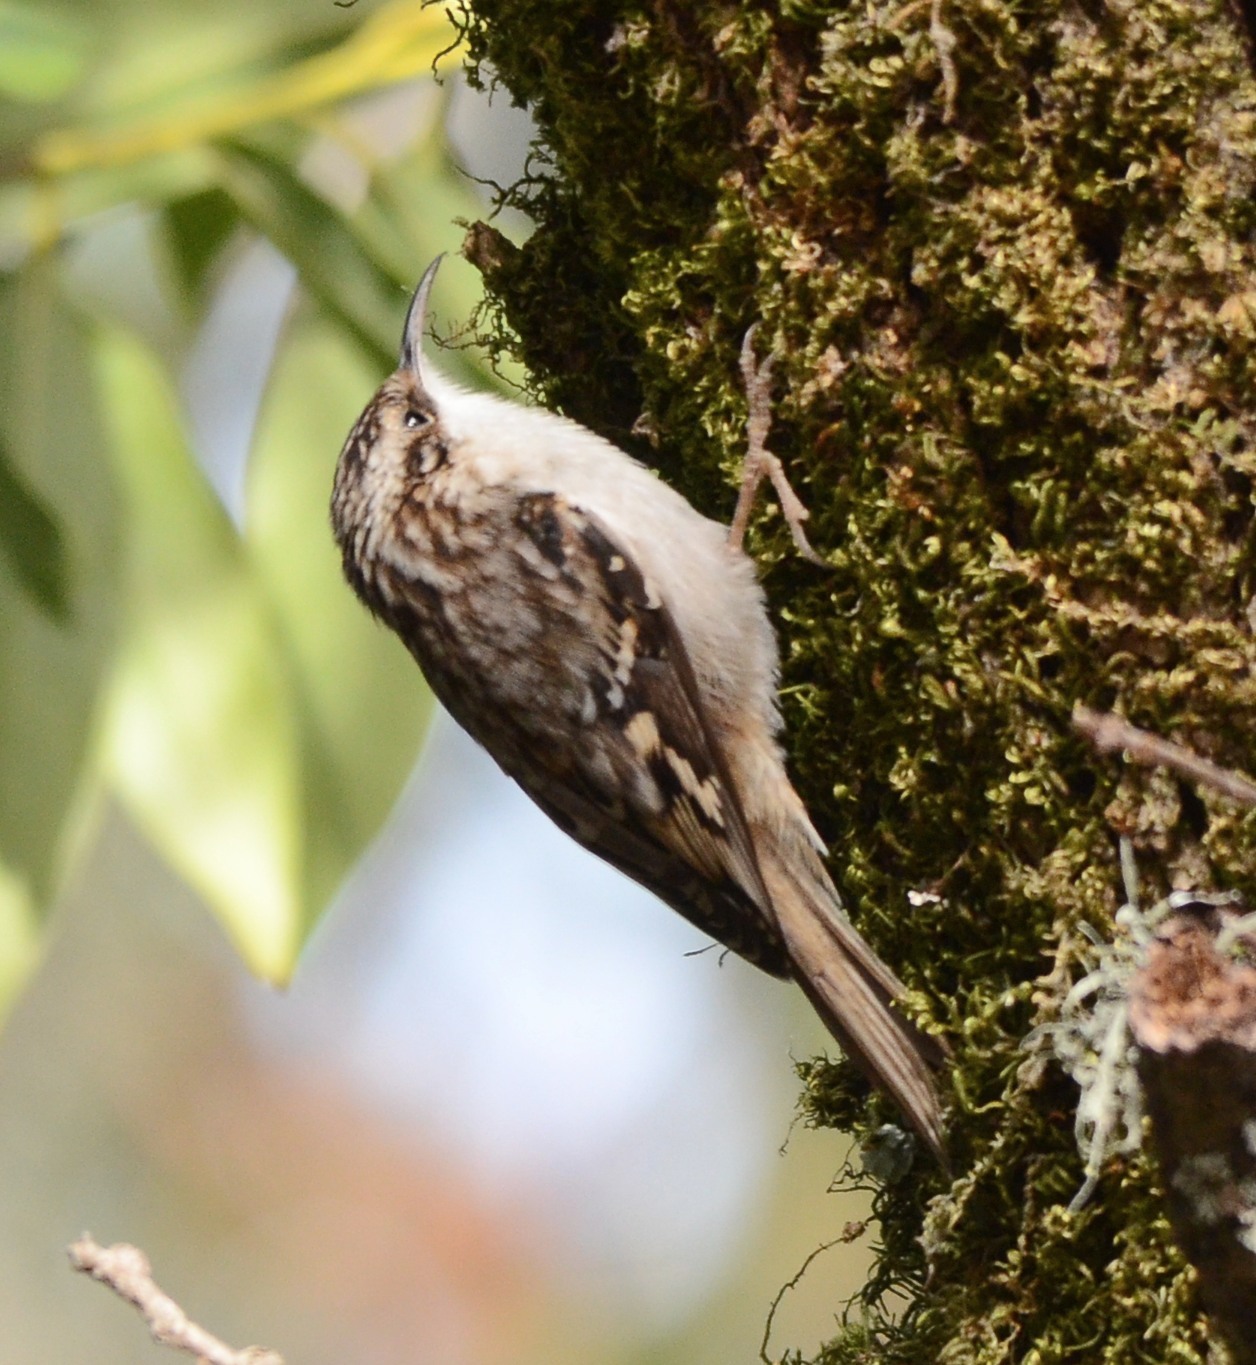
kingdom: Animalia
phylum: Chordata
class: Aves
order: Passeriformes
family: Certhiidae
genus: Certhia
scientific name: Certhia americana
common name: Brown creeper
